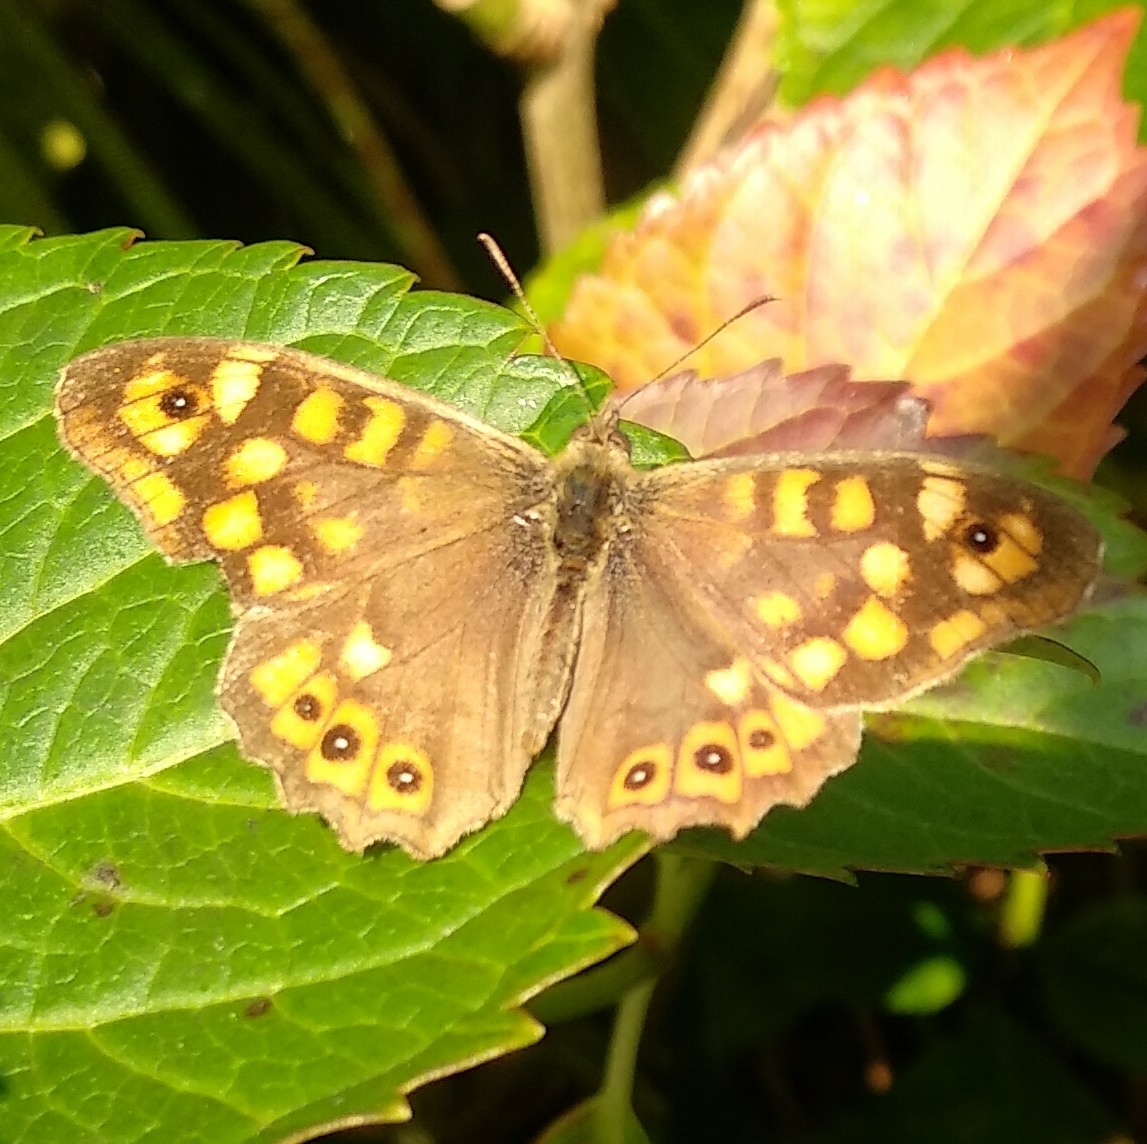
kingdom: Animalia
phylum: Arthropoda
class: Insecta
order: Lepidoptera
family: Nymphalidae
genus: Pararge
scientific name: Pararge aegeria
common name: Speckled wood
